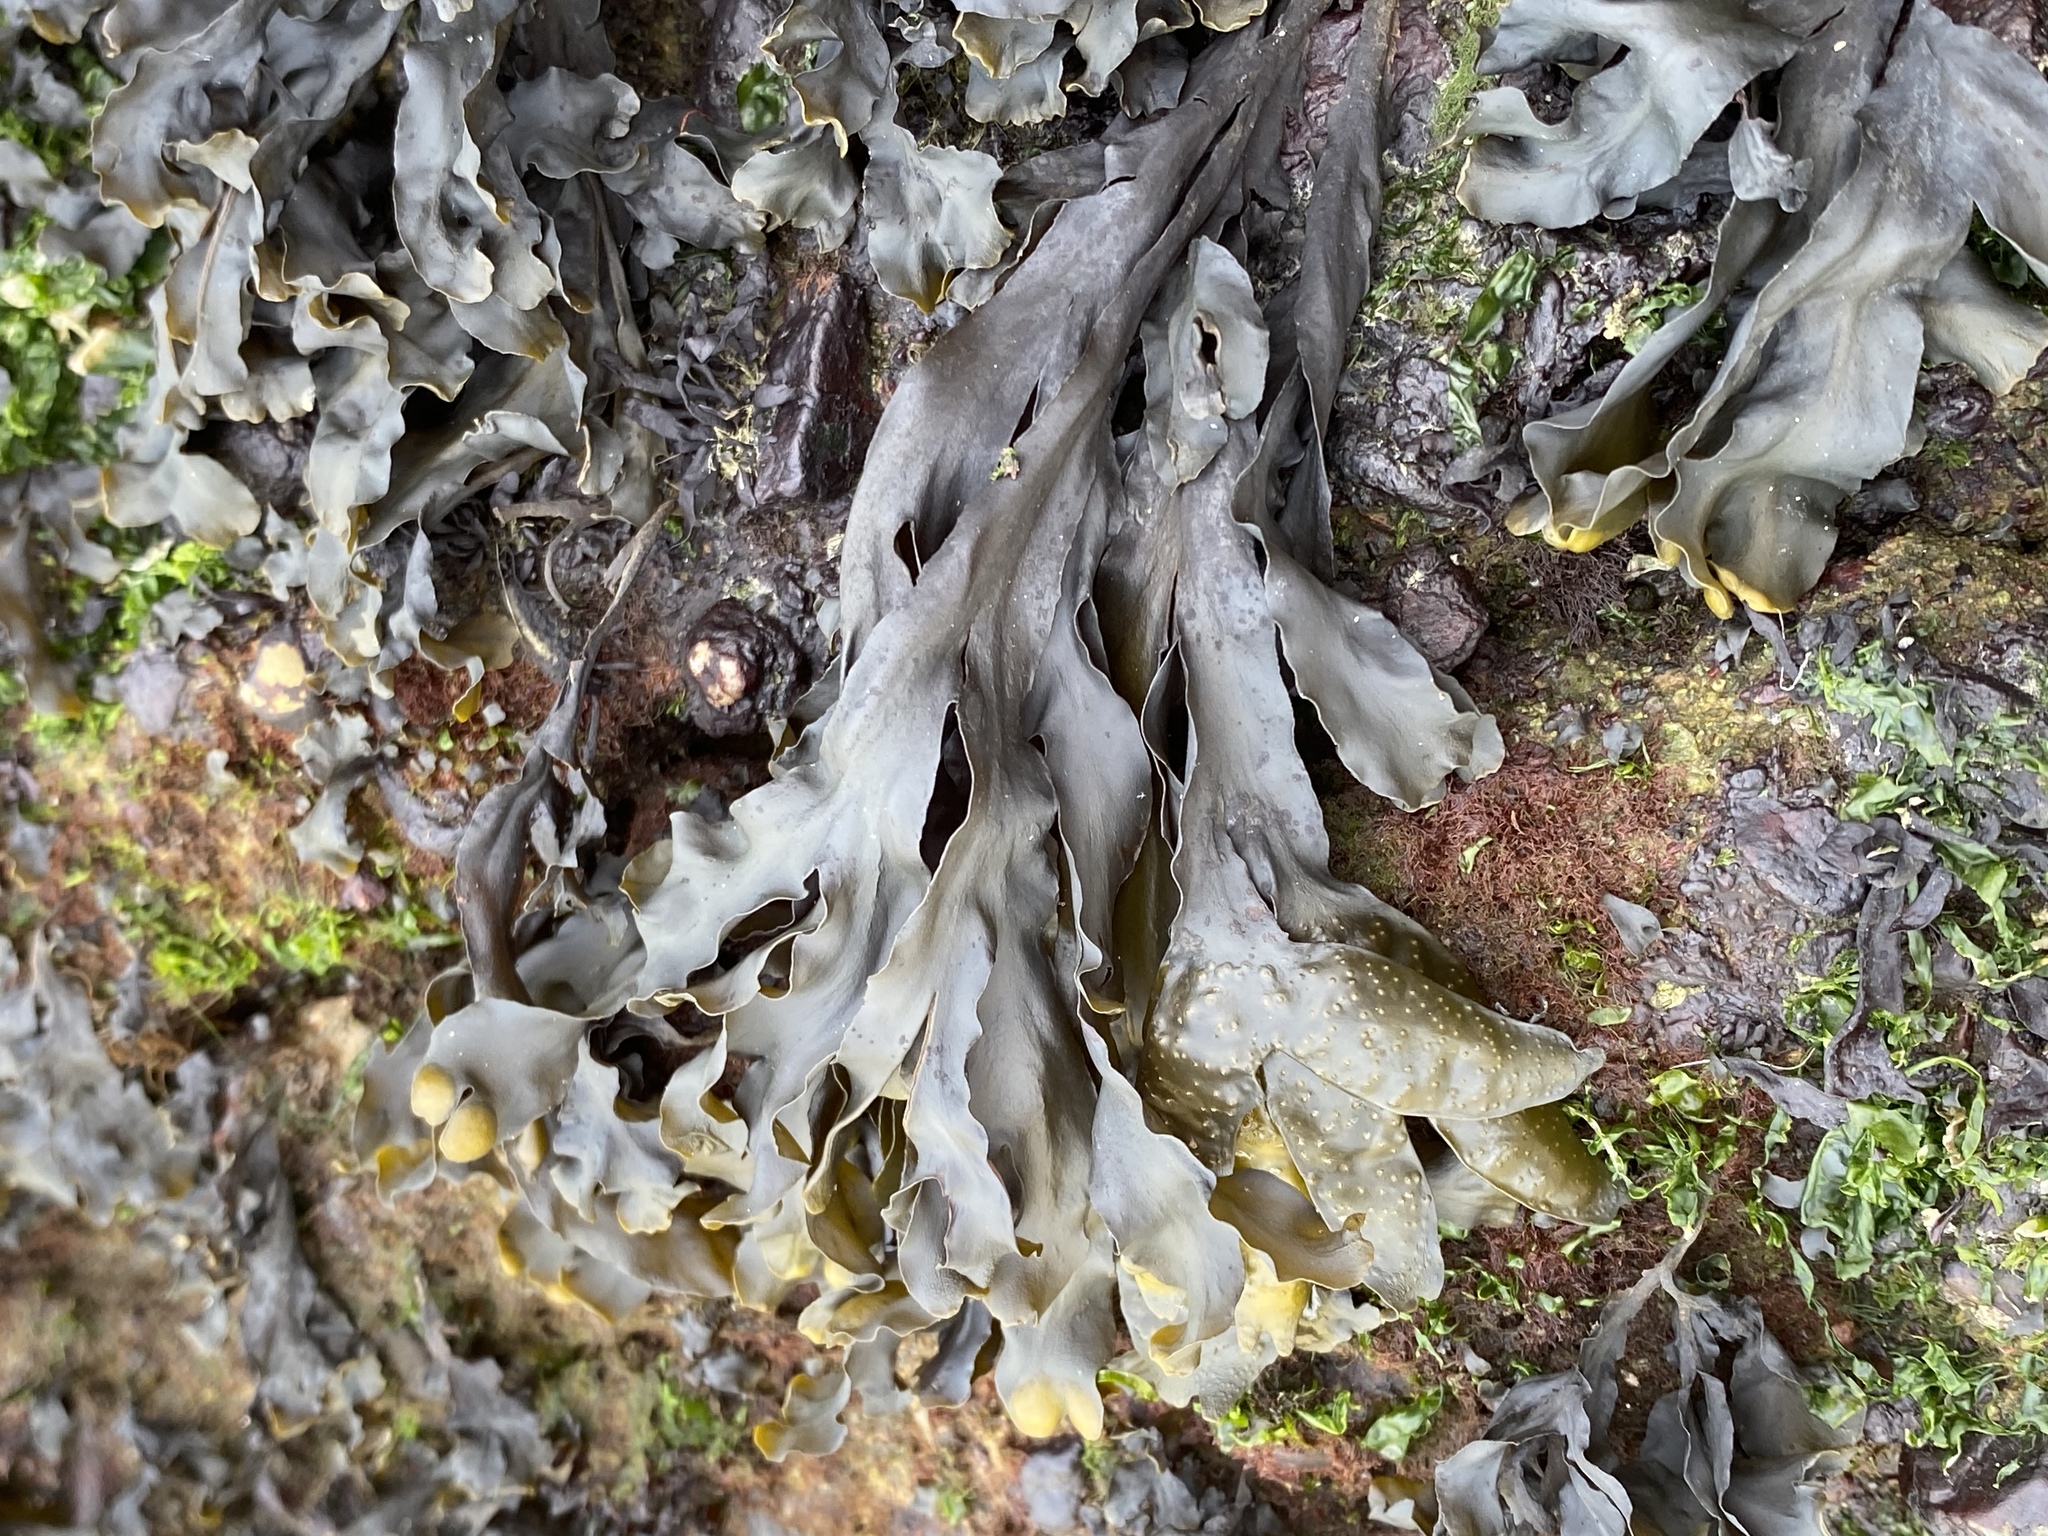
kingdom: Chromista
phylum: Ochrophyta
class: Phaeophyceae
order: Fucales
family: Fucaceae
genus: Fucus
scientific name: Fucus distichus
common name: Rockweed
